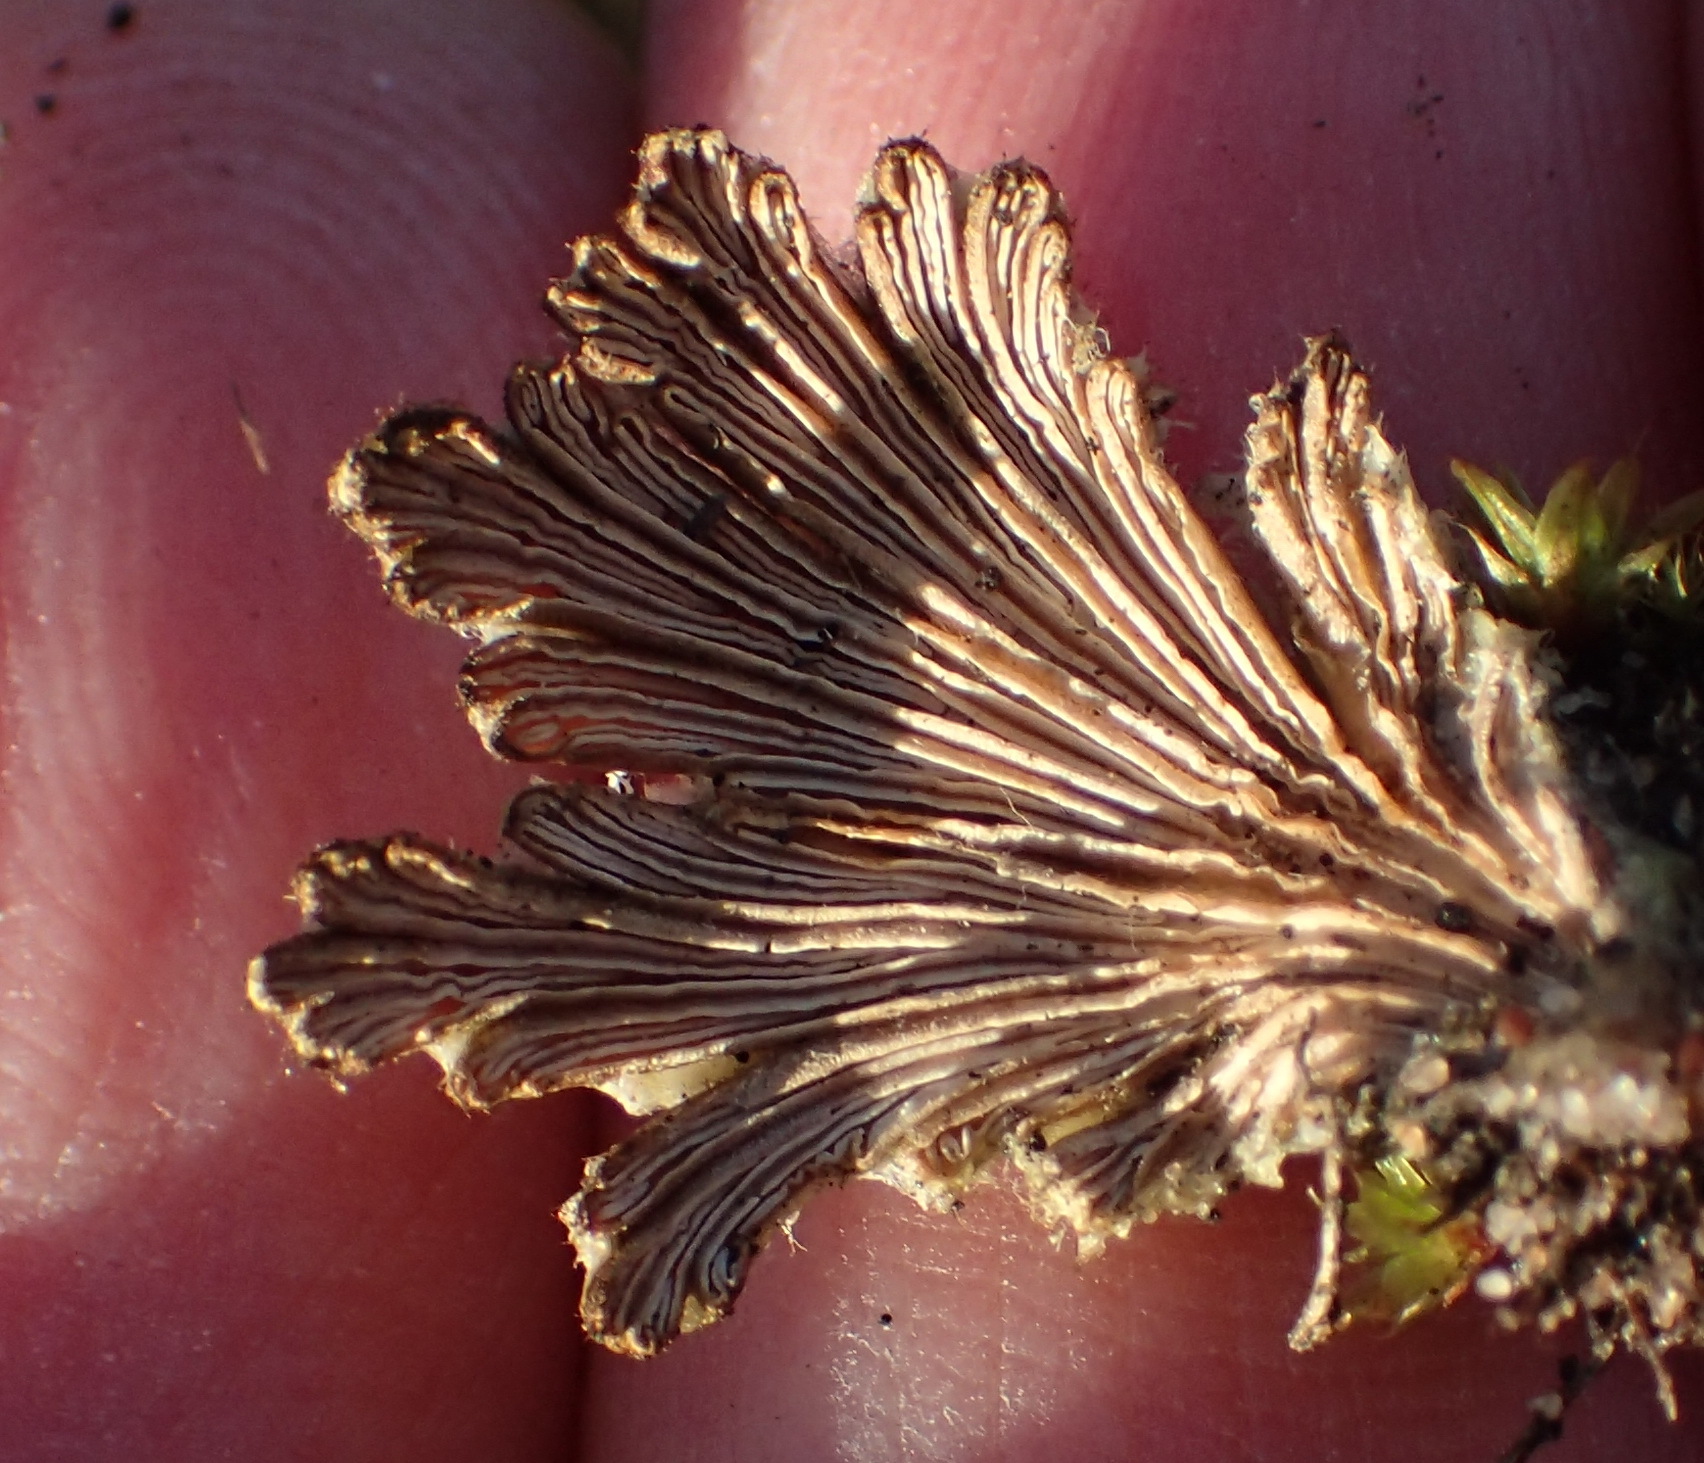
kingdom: Fungi
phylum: Basidiomycota
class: Agaricomycetes
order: Agaricales
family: Schizophyllaceae
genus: Schizophyllum
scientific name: Schizophyllum commune
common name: Common porecrust
